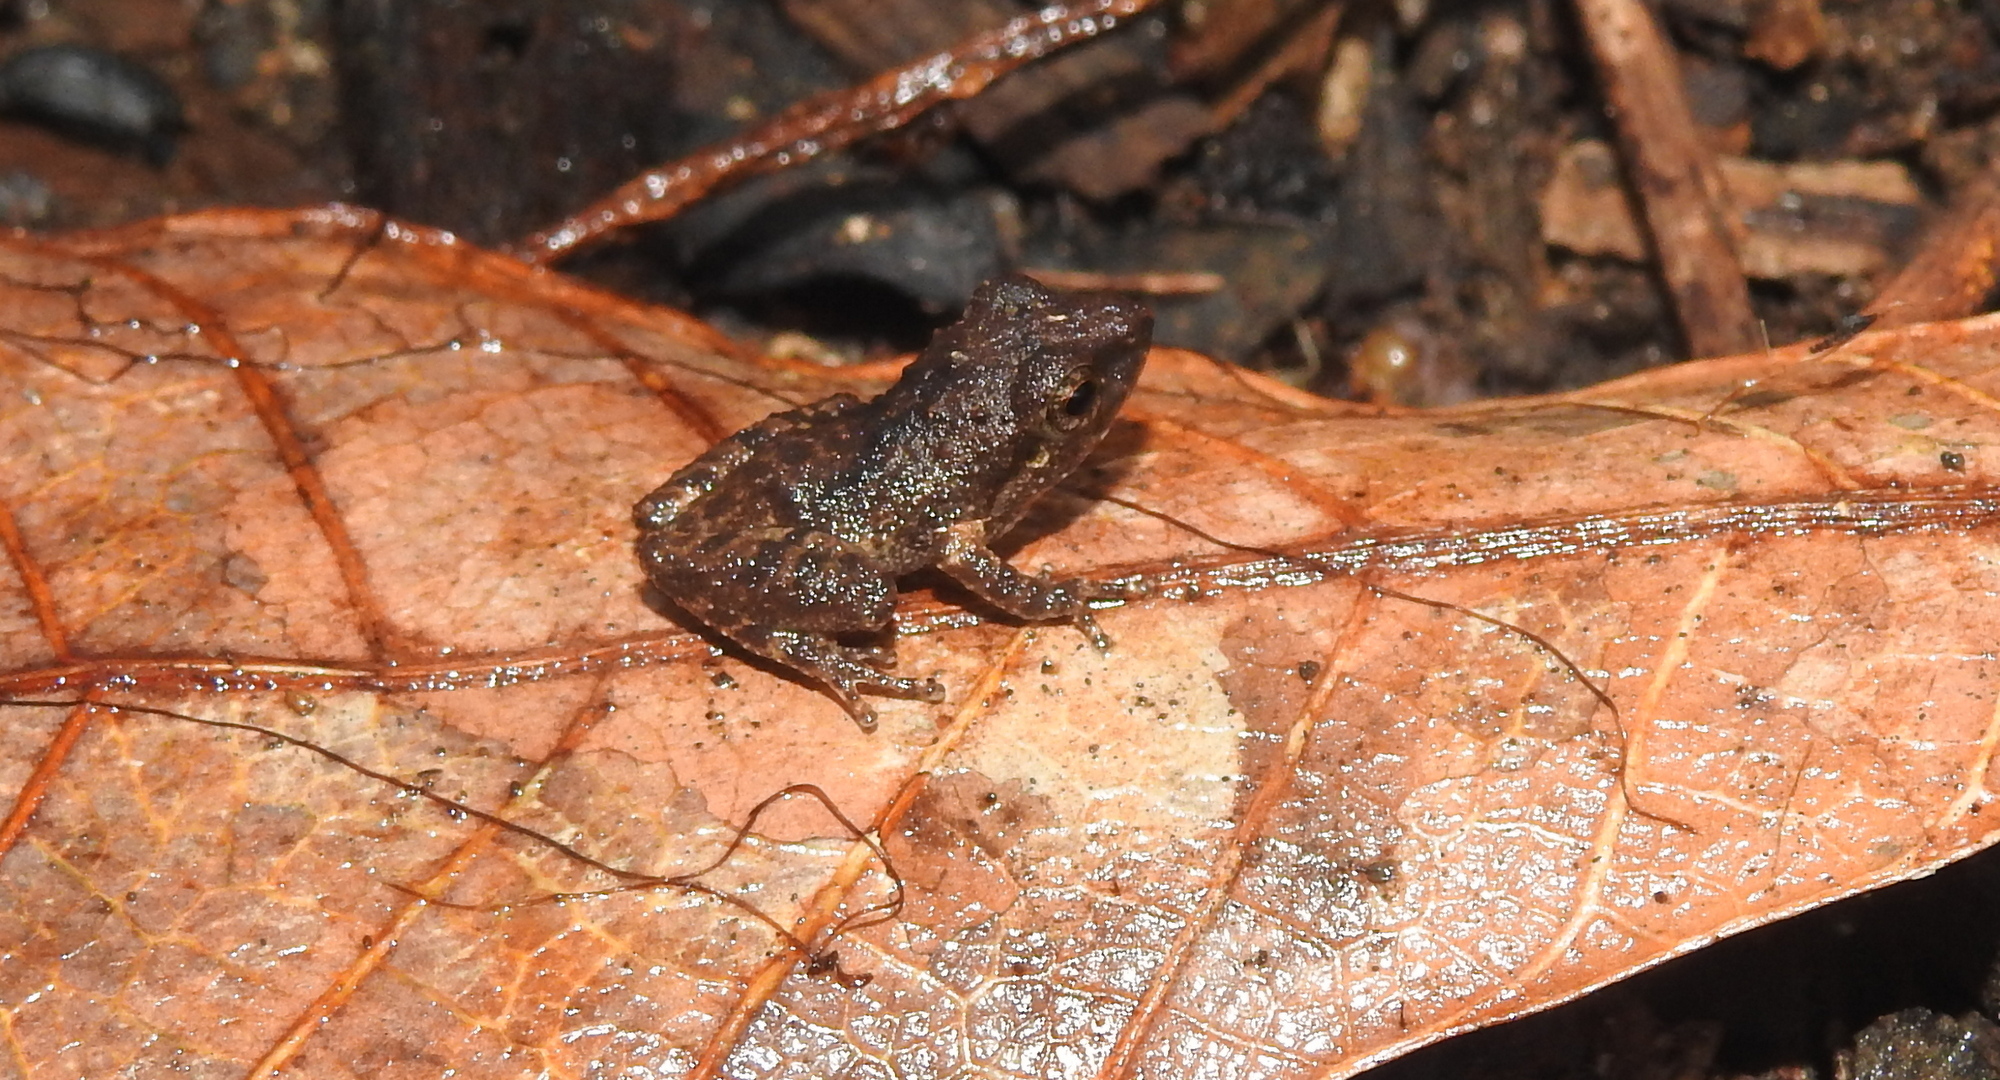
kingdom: Animalia
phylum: Chordata
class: Amphibia
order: Anura
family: Rhacophoridae
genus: Pseudophilautus
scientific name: Pseudophilautus wynaadensis
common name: Dark-eared bush frog
